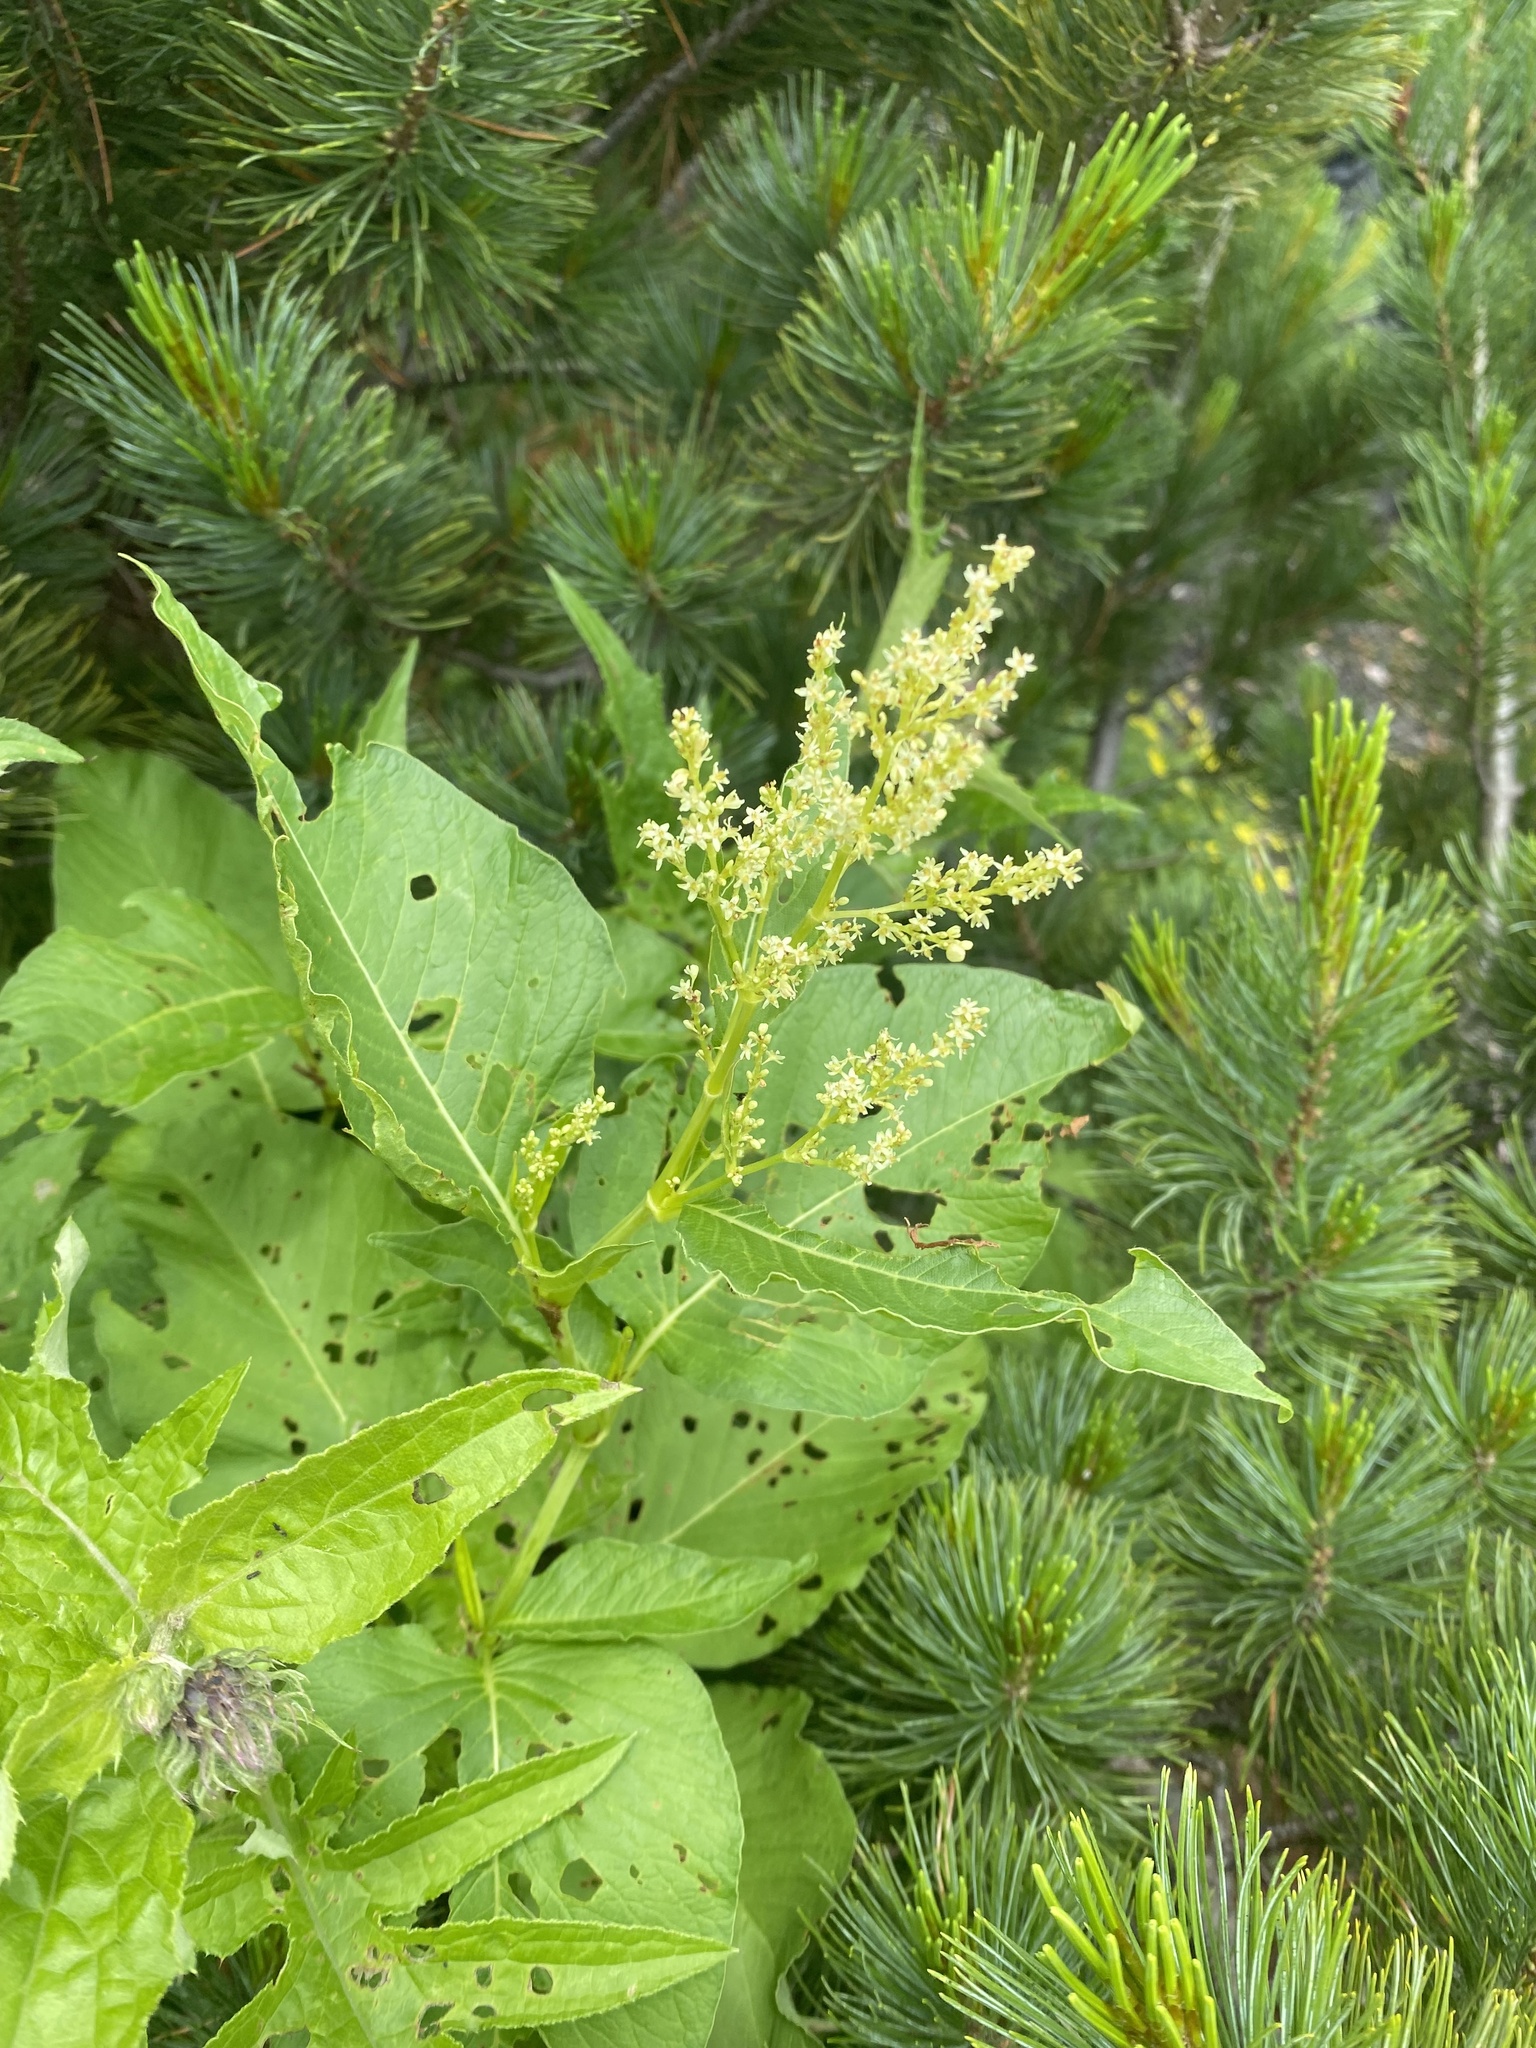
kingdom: Plantae
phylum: Tracheophyta
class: Magnoliopsida
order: Caryophyllales
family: Polygonaceae
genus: Koenigia
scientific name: Koenigia weyrichii
